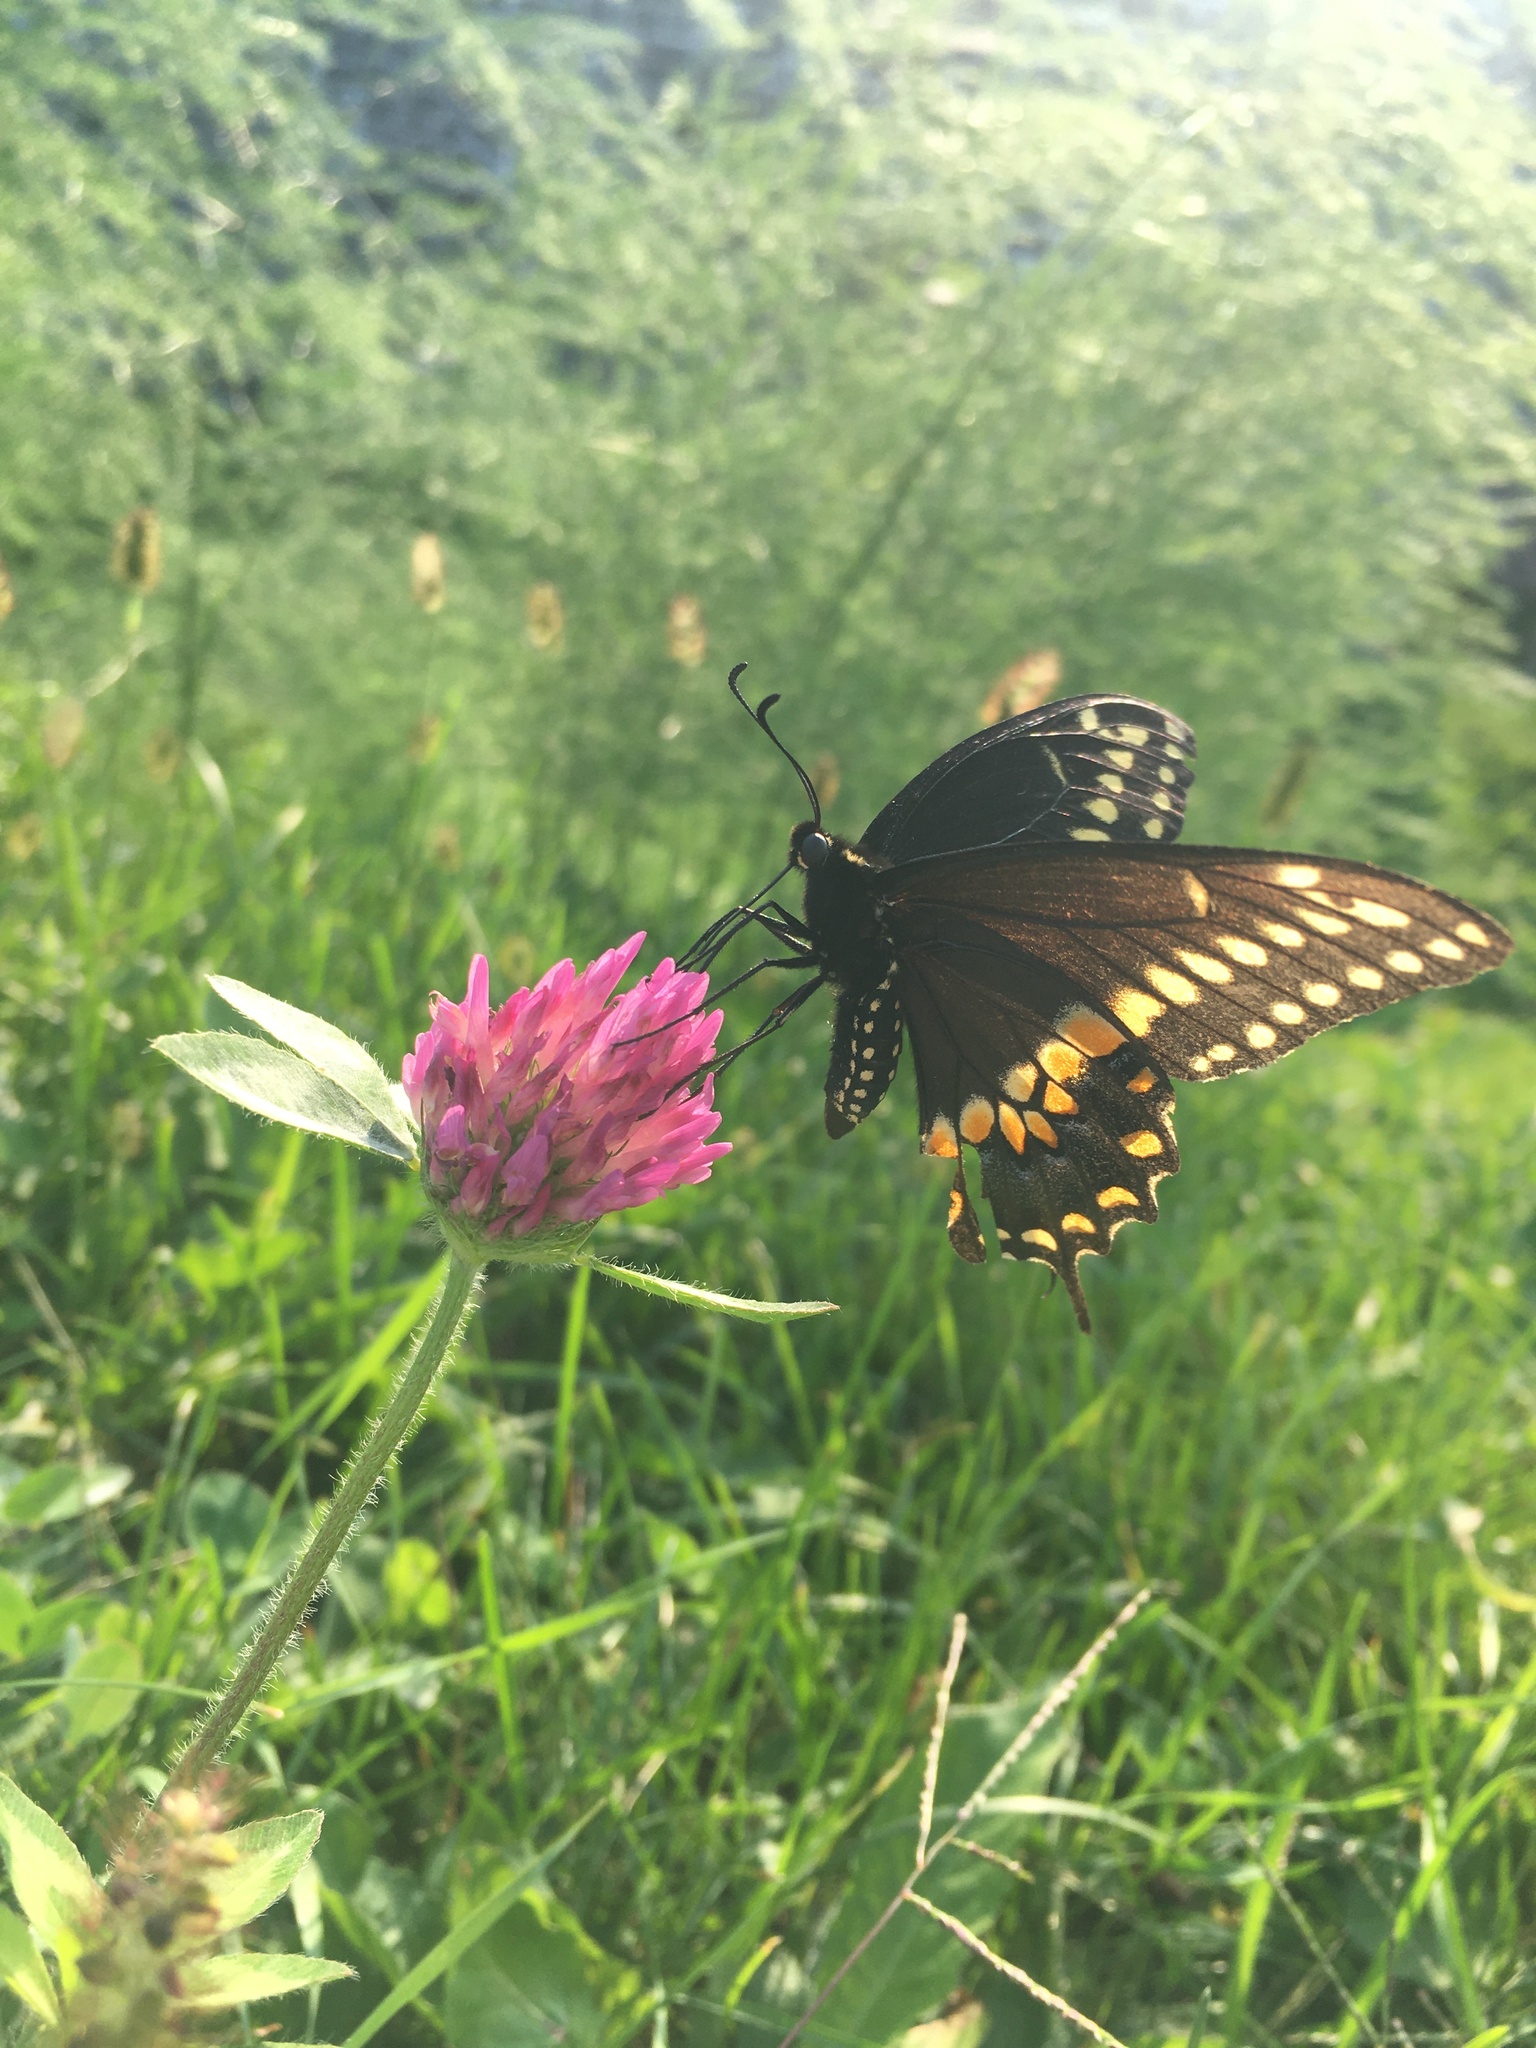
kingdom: Animalia
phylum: Arthropoda
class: Insecta
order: Lepidoptera
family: Papilionidae
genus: Papilio
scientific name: Papilio polyxenes
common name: Black swallowtail
